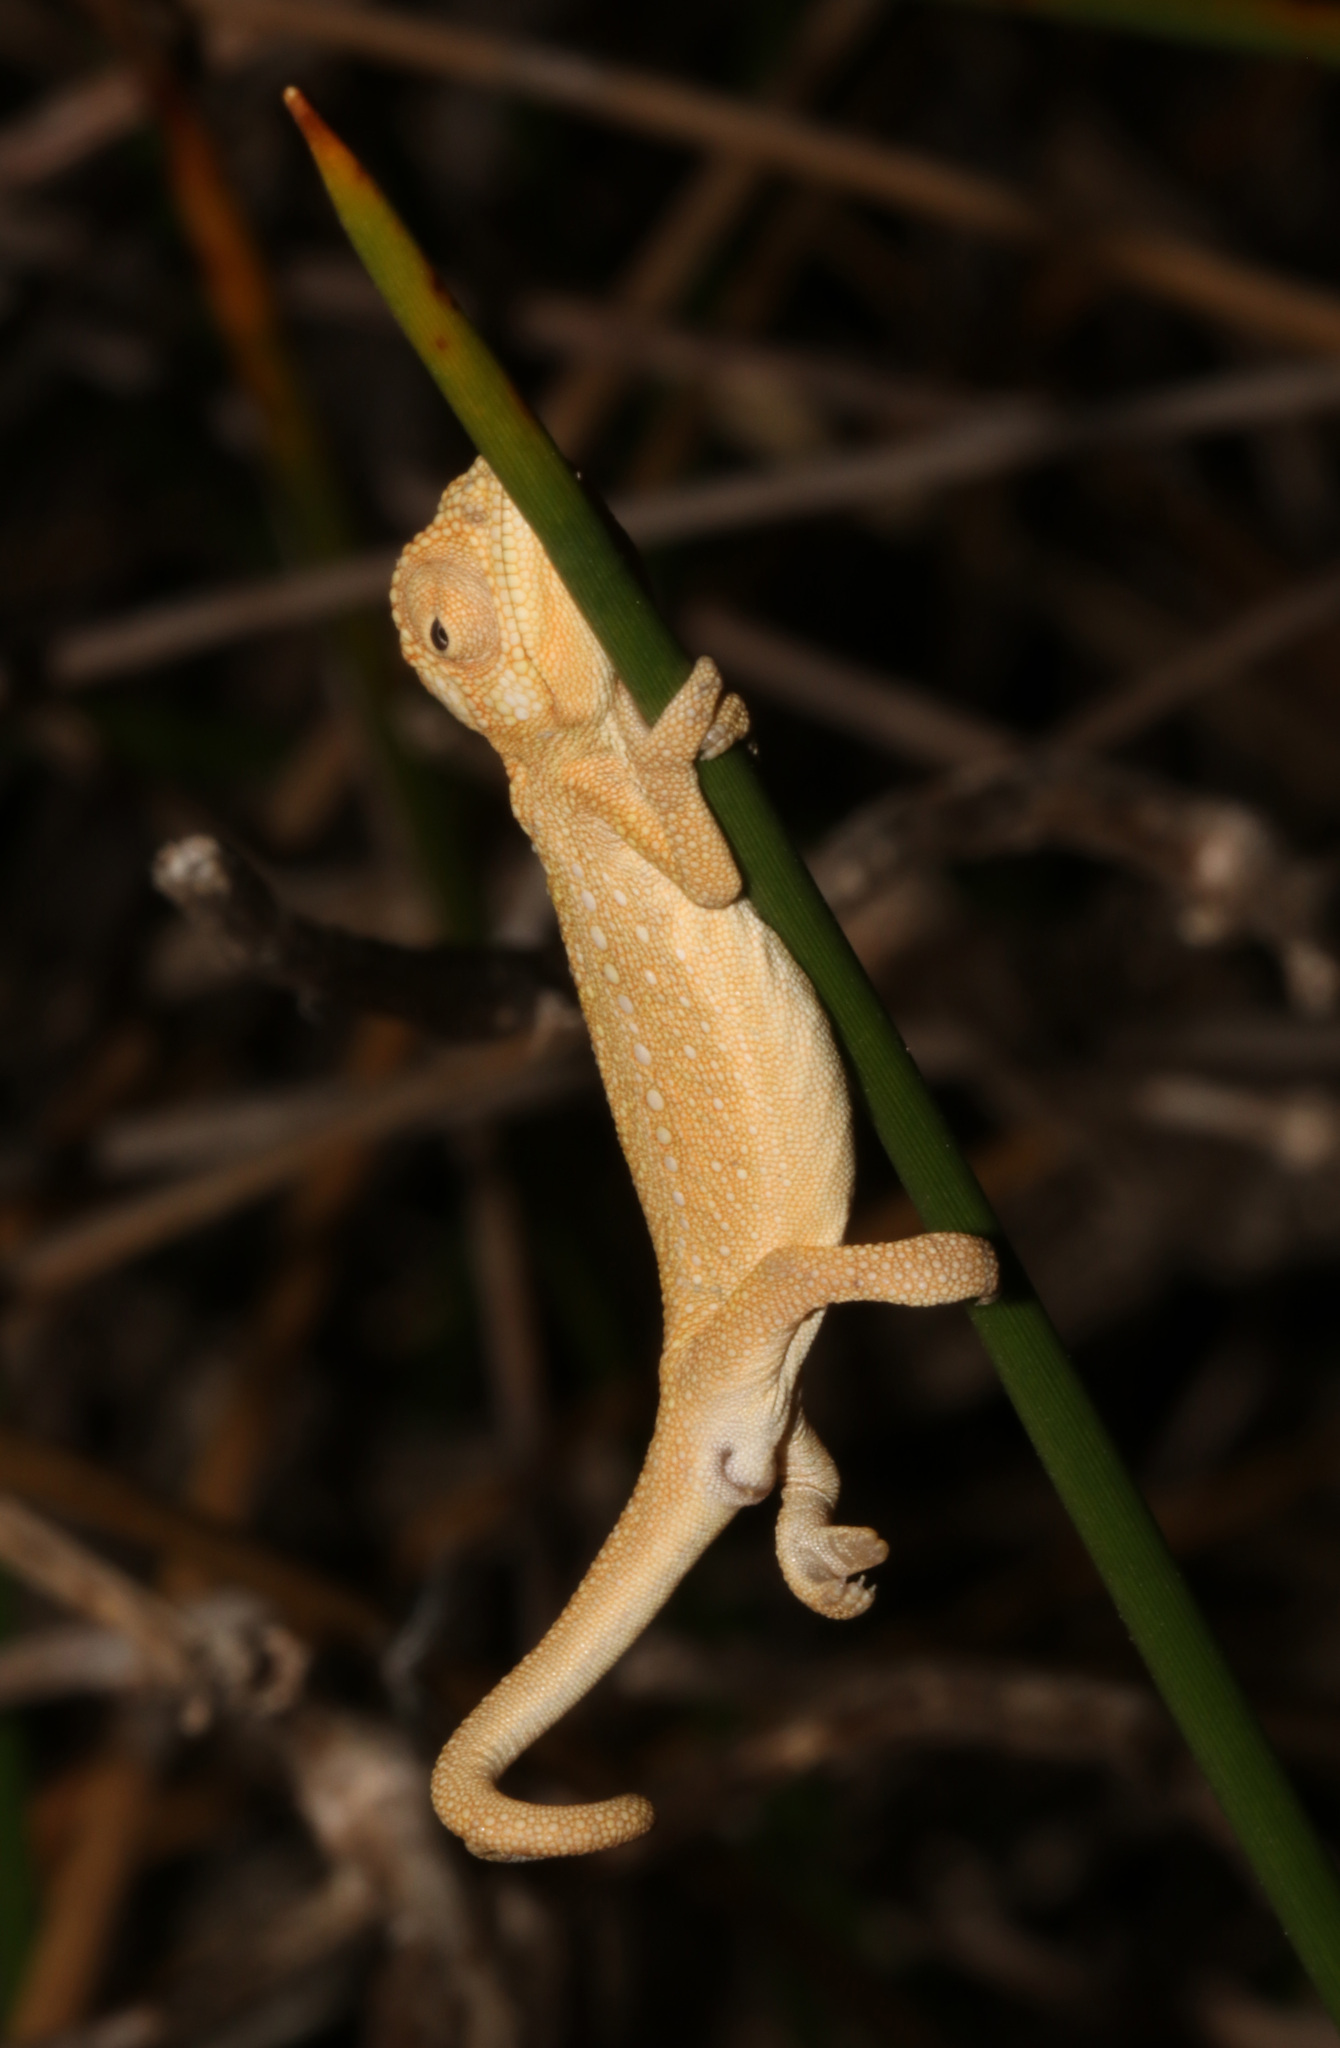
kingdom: Animalia
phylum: Chordata
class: Squamata
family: Chamaeleonidae
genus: Bradypodion
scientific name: Bradypodion pumilum
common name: Cape dwarf chameleon
